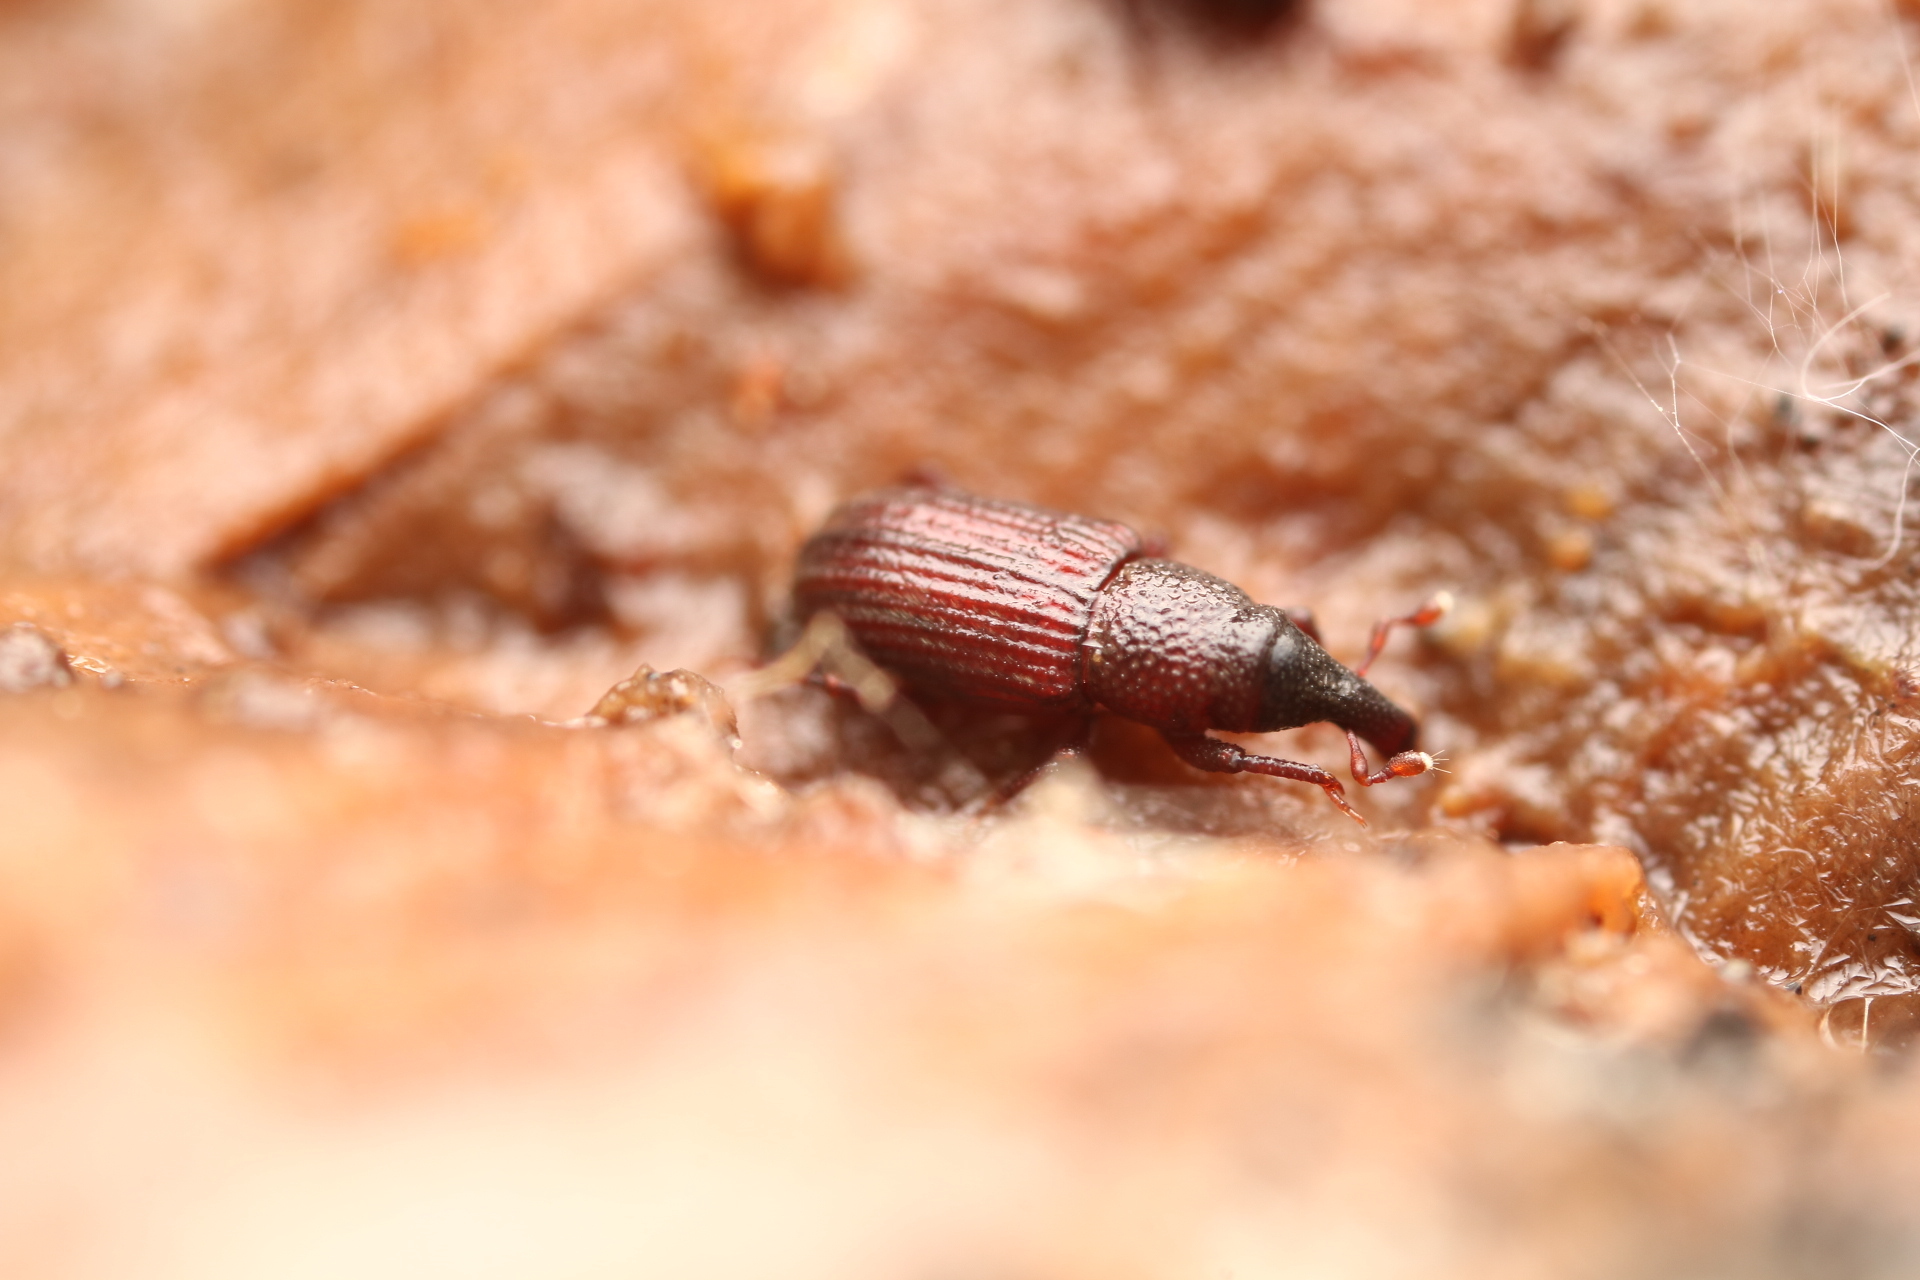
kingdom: Animalia
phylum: Arthropoda
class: Insecta
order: Coleoptera
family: Dryophthoridae
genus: Dryophthorus
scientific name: Dryophthorus americanus
